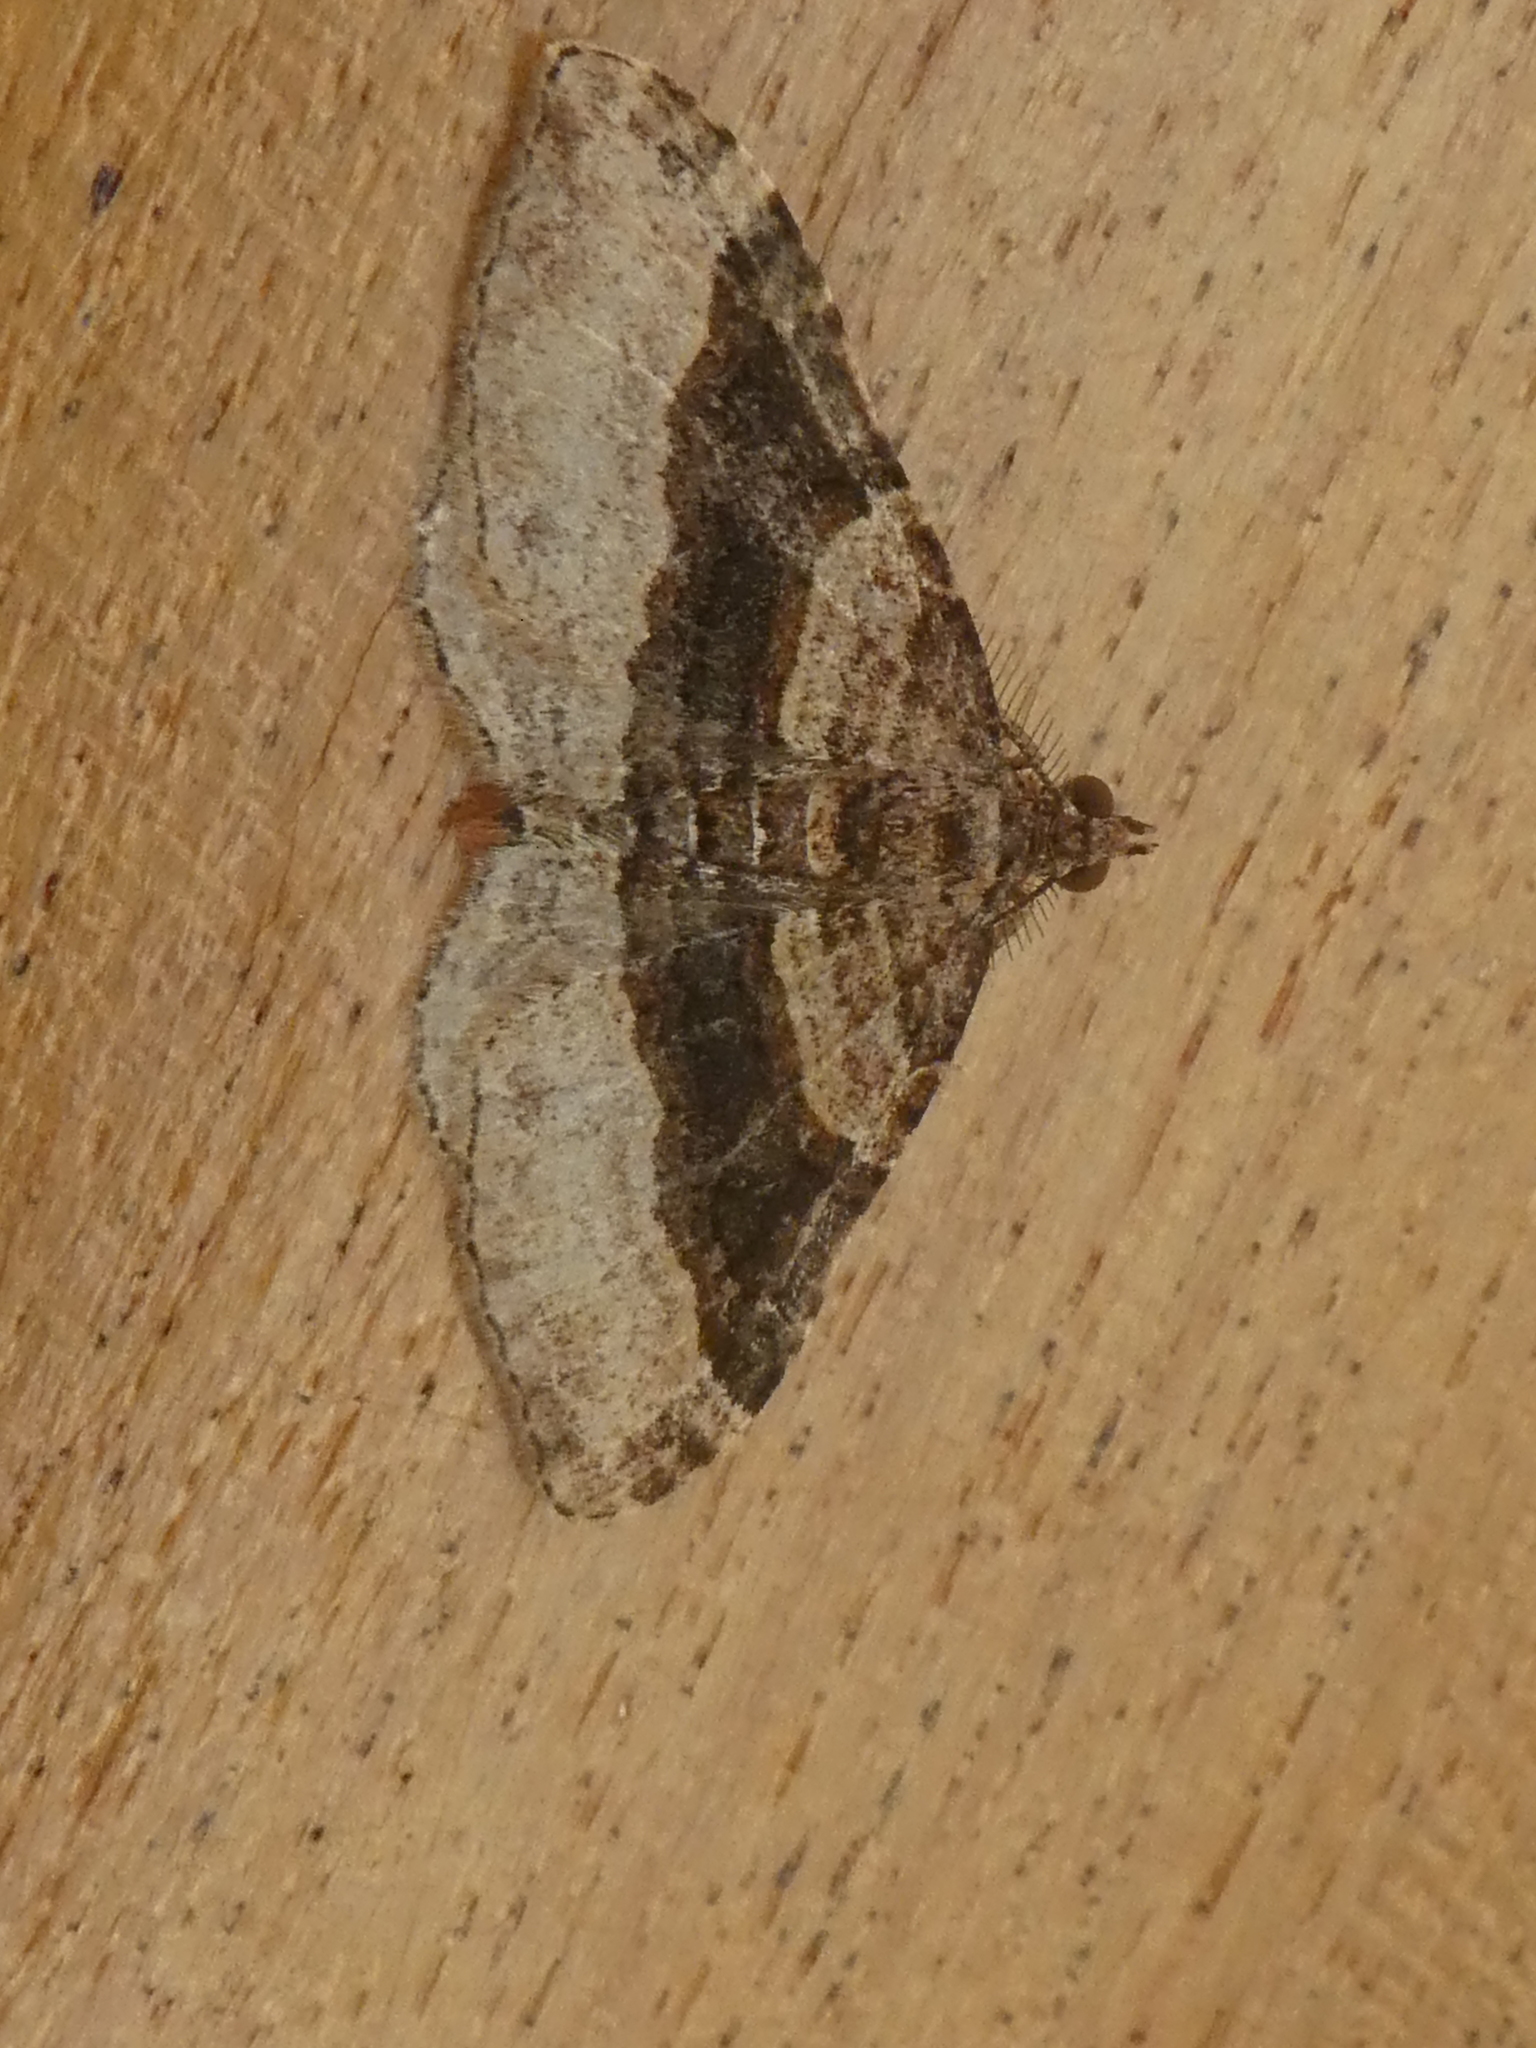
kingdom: Animalia
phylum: Arthropoda
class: Insecta
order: Lepidoptera
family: Geometridae
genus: Epyaxa
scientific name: Epyaxa lucidata
